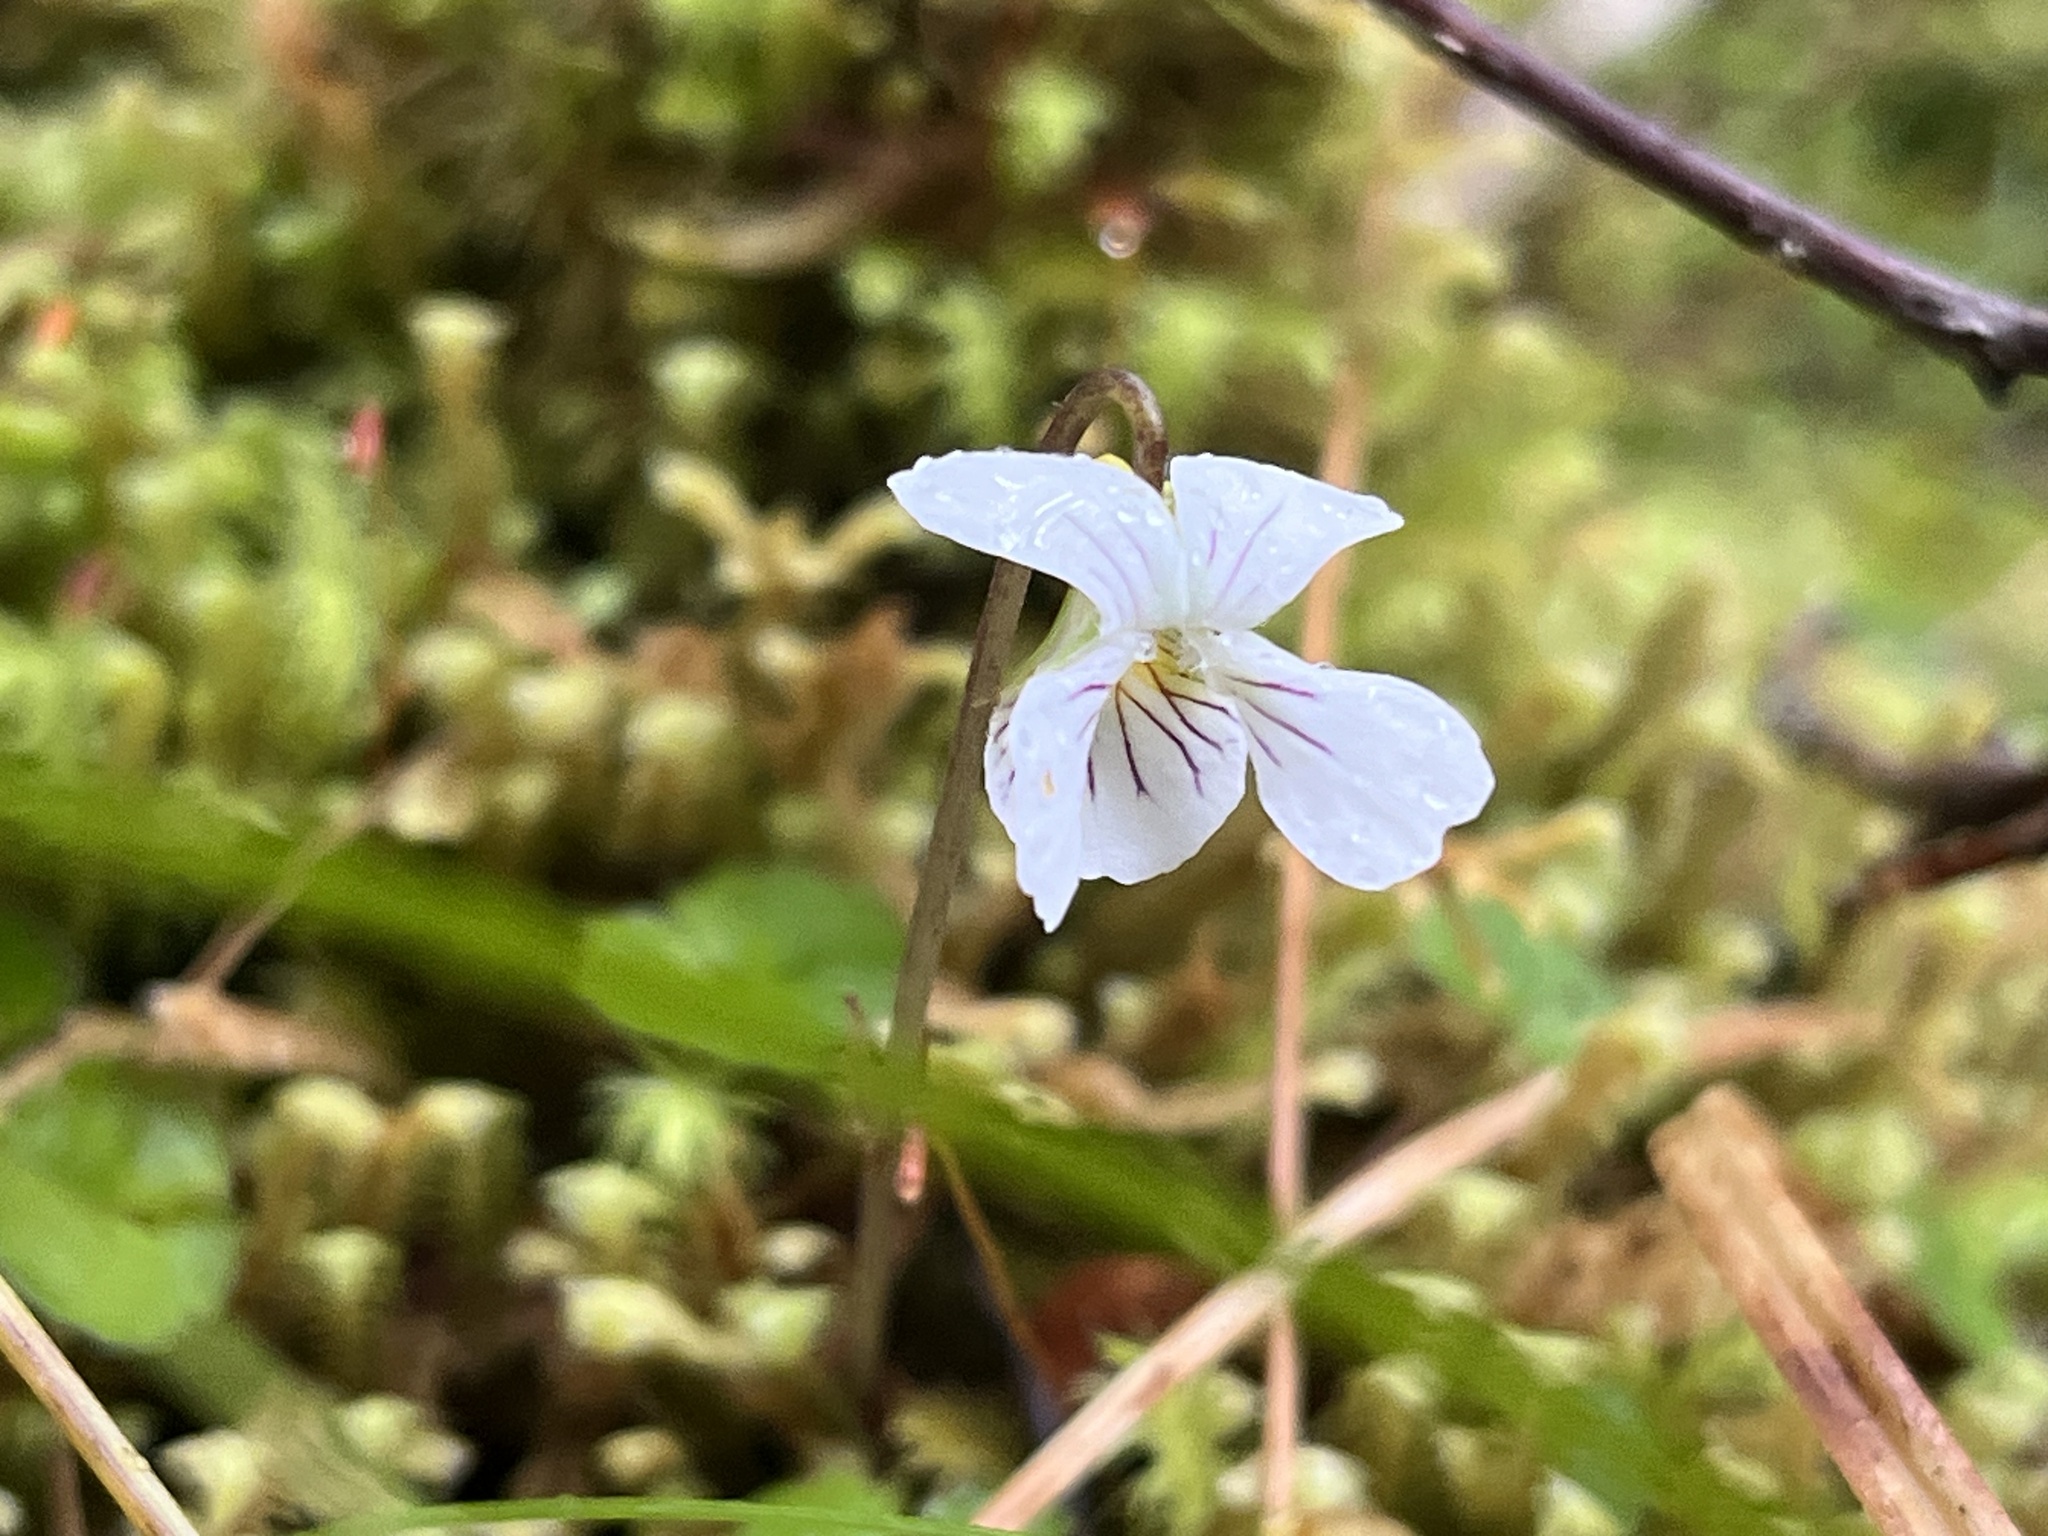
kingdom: Plantae
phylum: Tracheophyta
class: Magnoliopsida
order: Malpighiales
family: Violaceae
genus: Viola
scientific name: Viola filicaulis
